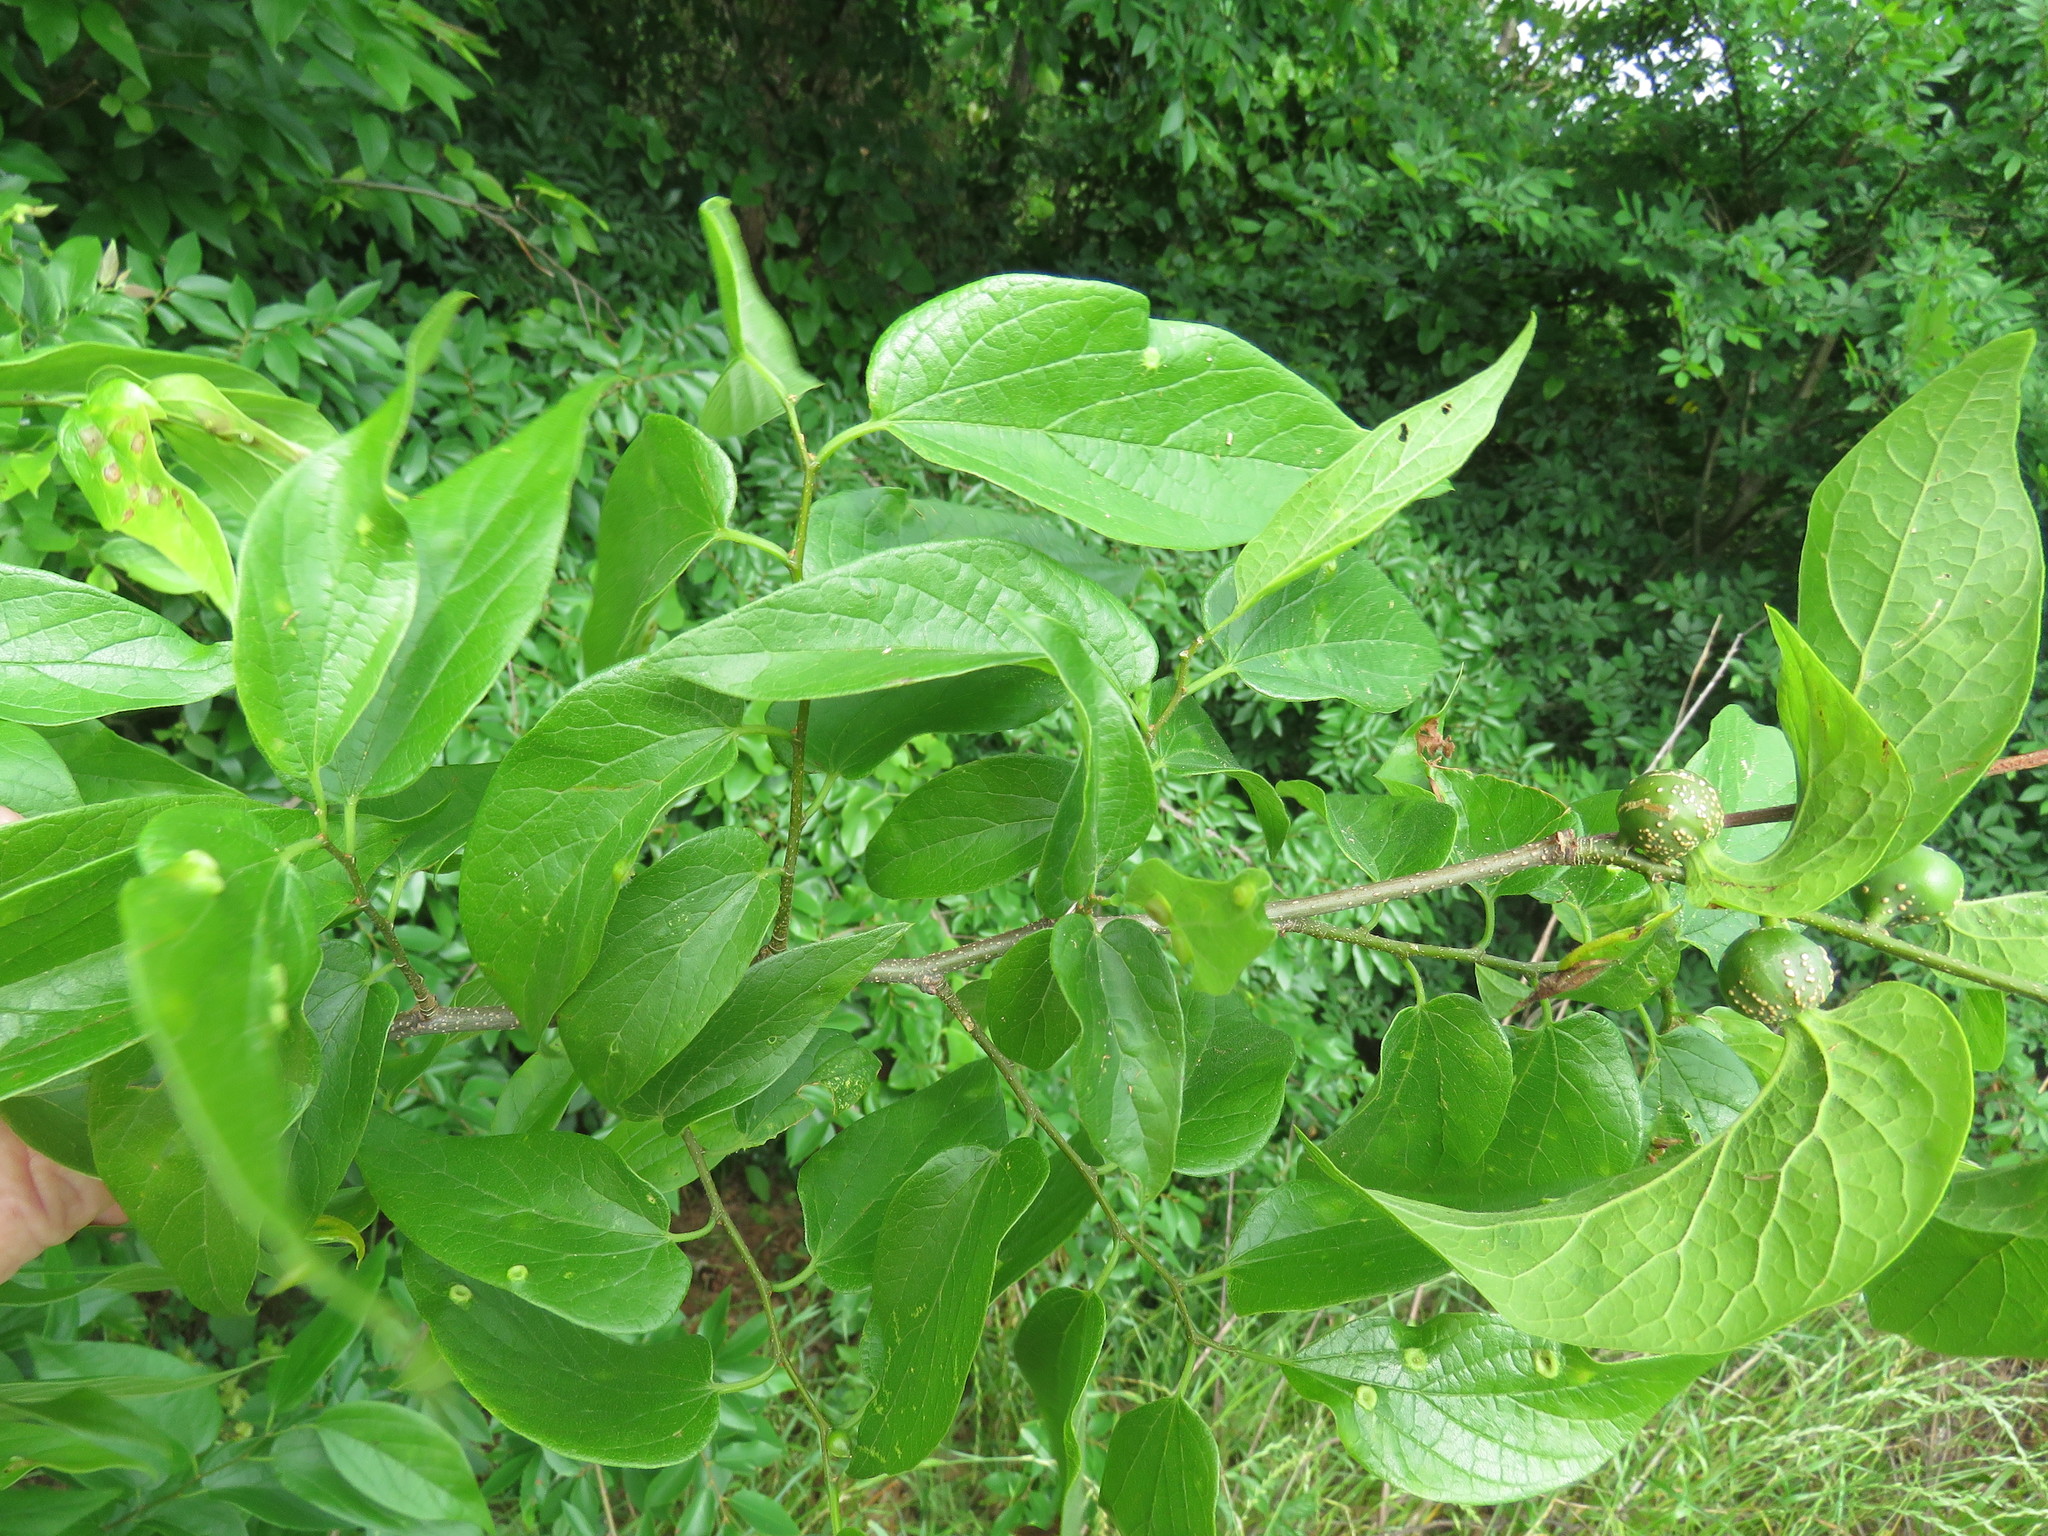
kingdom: Plantae
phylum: Tracheophyta
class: Magnoliopsida
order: Rosales
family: Cannabaceae
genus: Celtis
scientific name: Celtis laevigata
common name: Sugarberry
